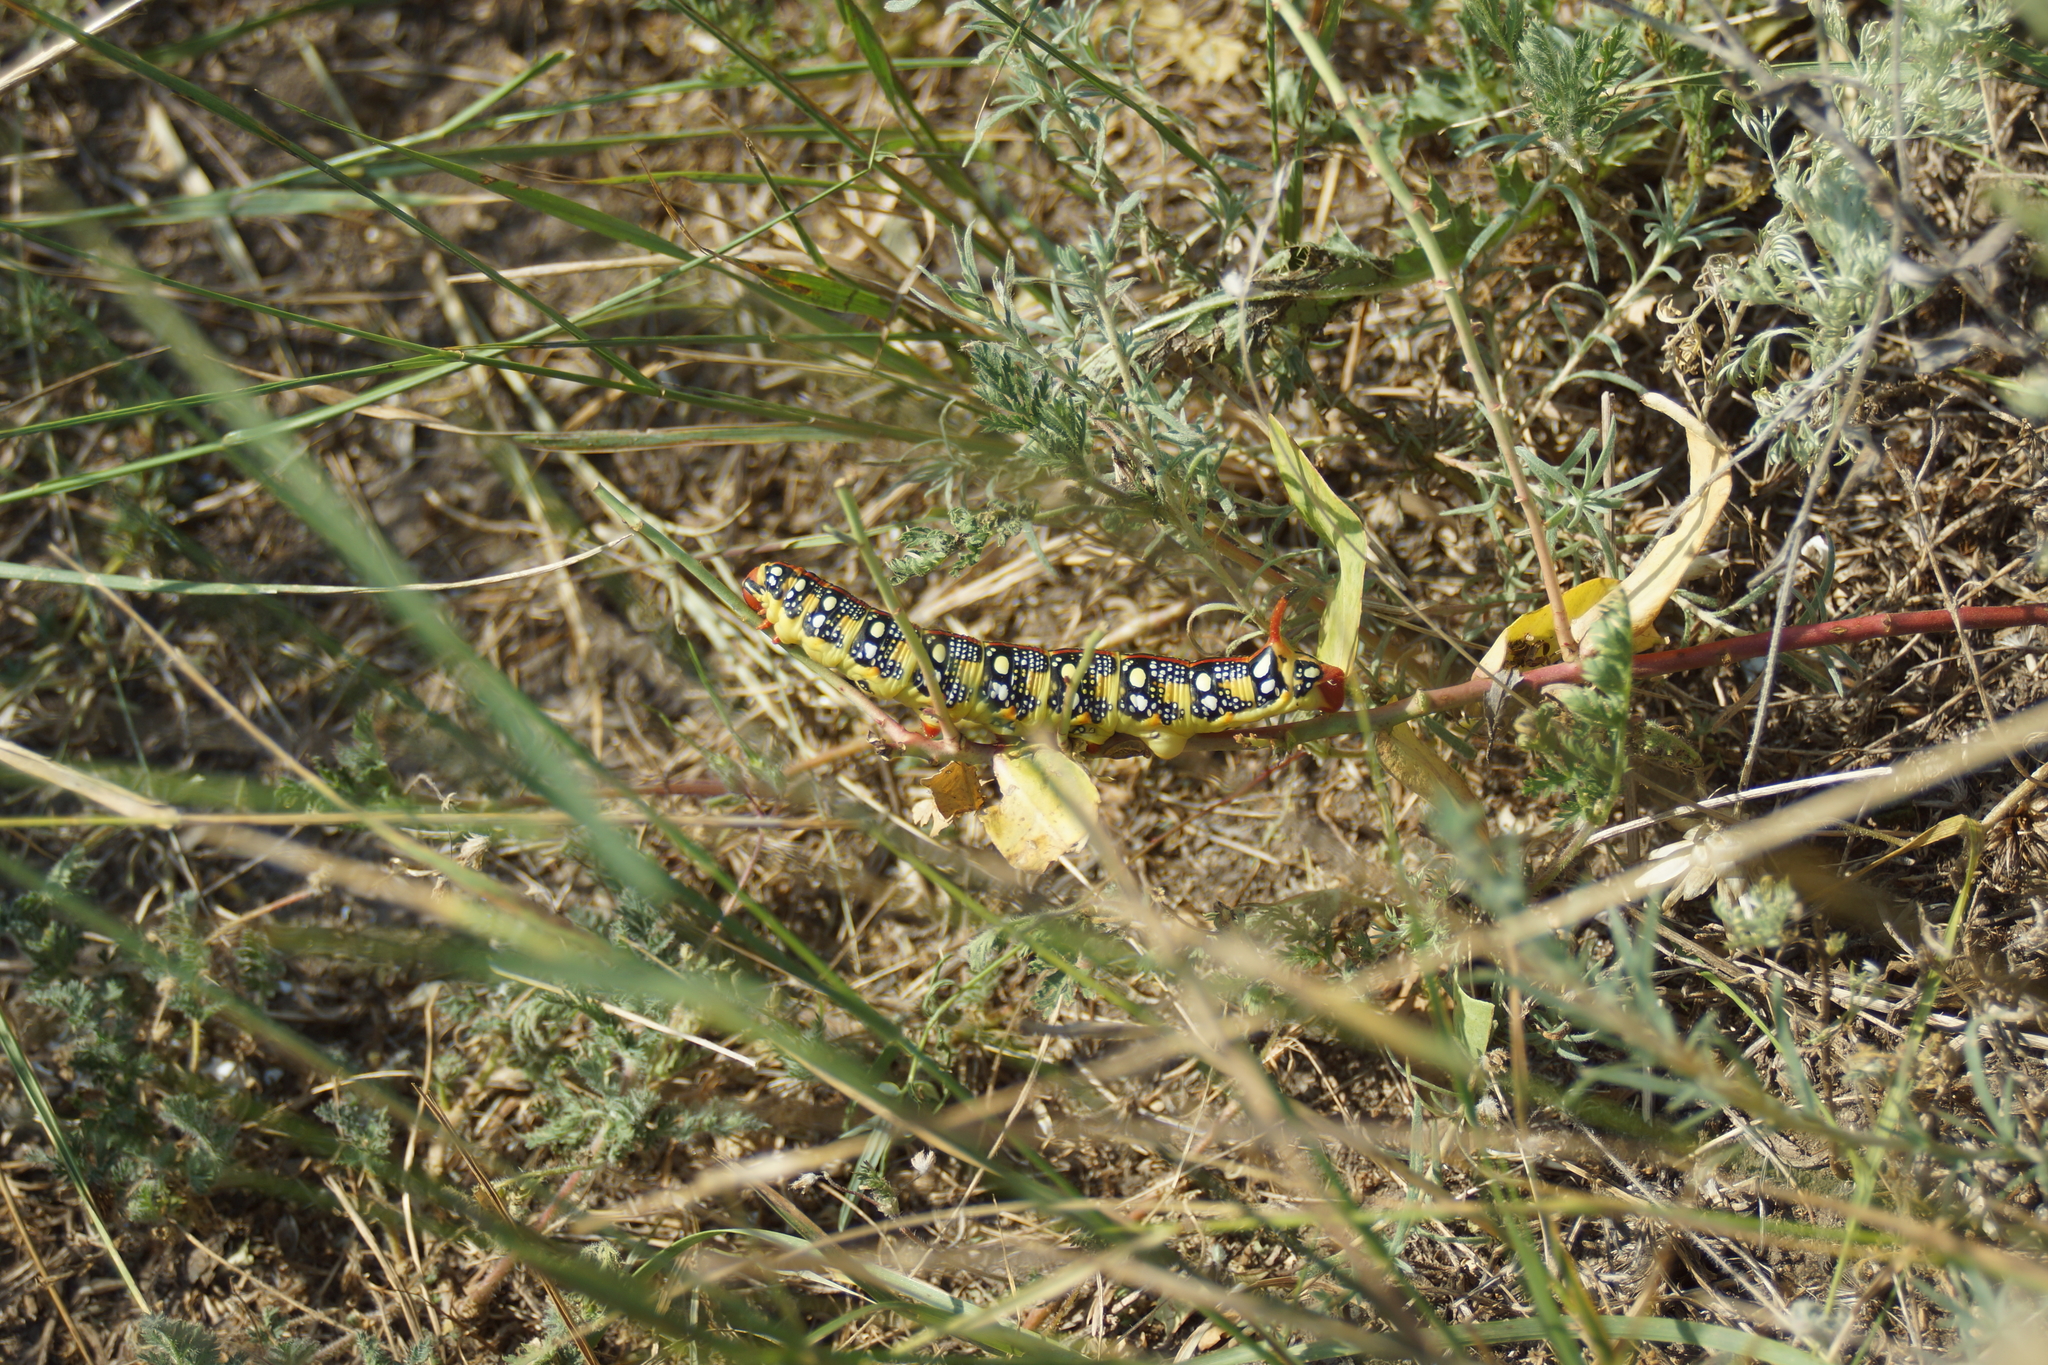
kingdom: Animalia
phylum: Arthropoda
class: Insecta
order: Lepidoptera
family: Sphingidae
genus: Hyles
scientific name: Hyles euphorbiae
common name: Spurge hawk-moth
